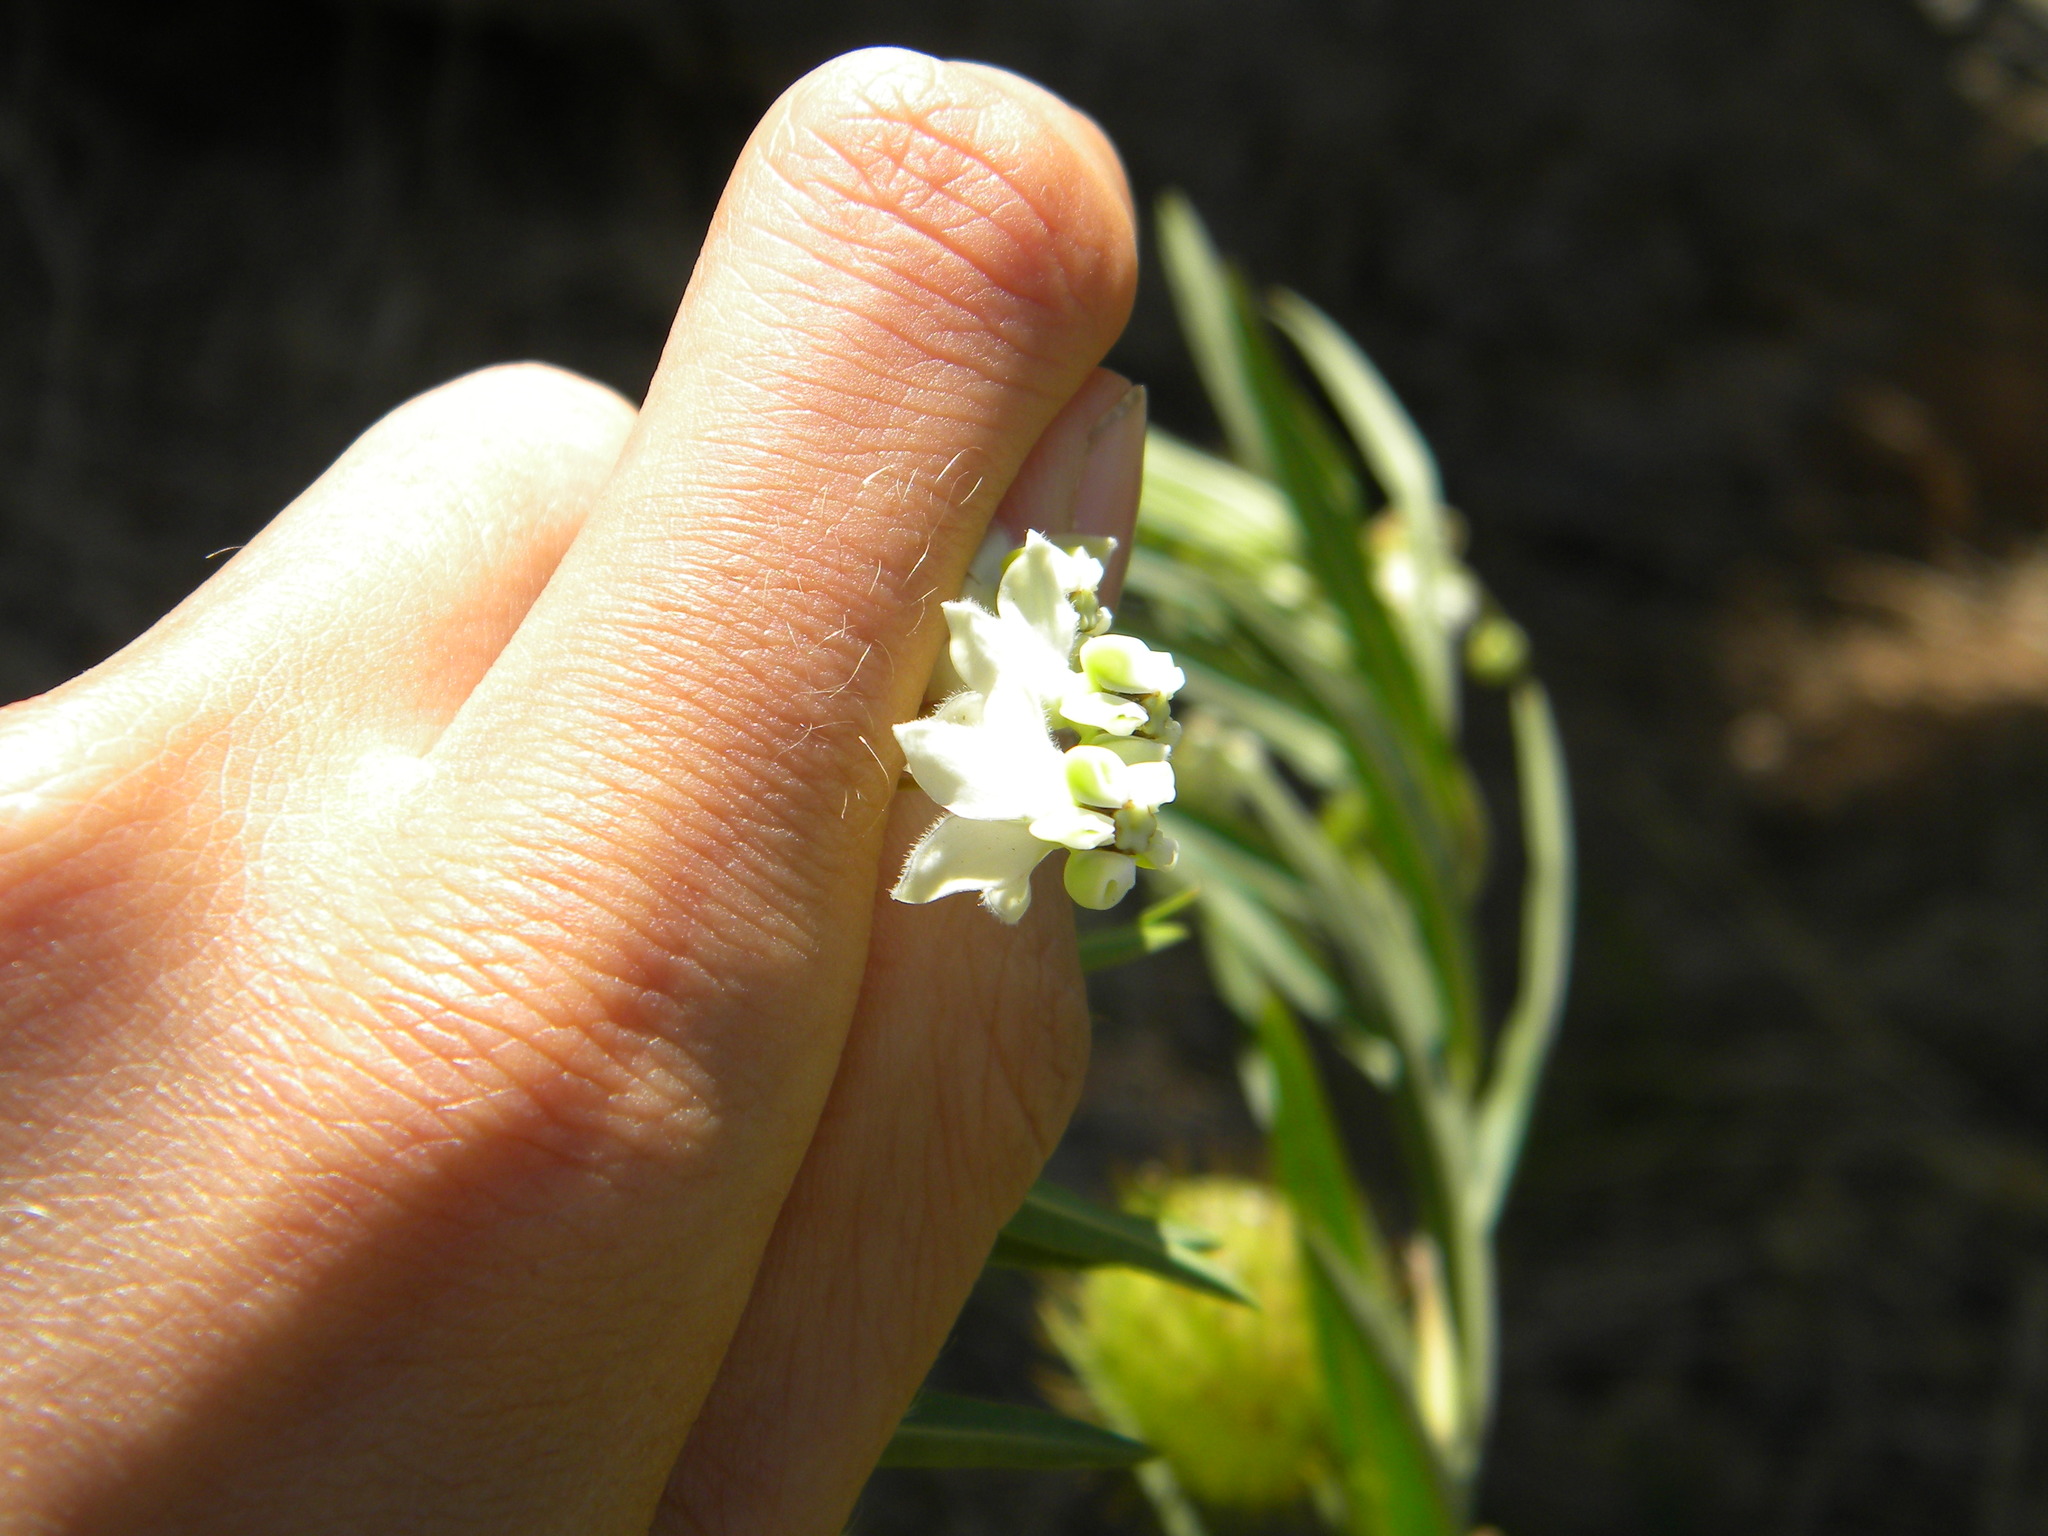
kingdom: Plantae
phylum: Tracheophyta
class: Magnoliopsida
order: Gentianales
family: Apocynaceae
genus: Gomphocarpus
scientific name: Gomphocarpus physocarpus
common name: Balloon cotton bush
